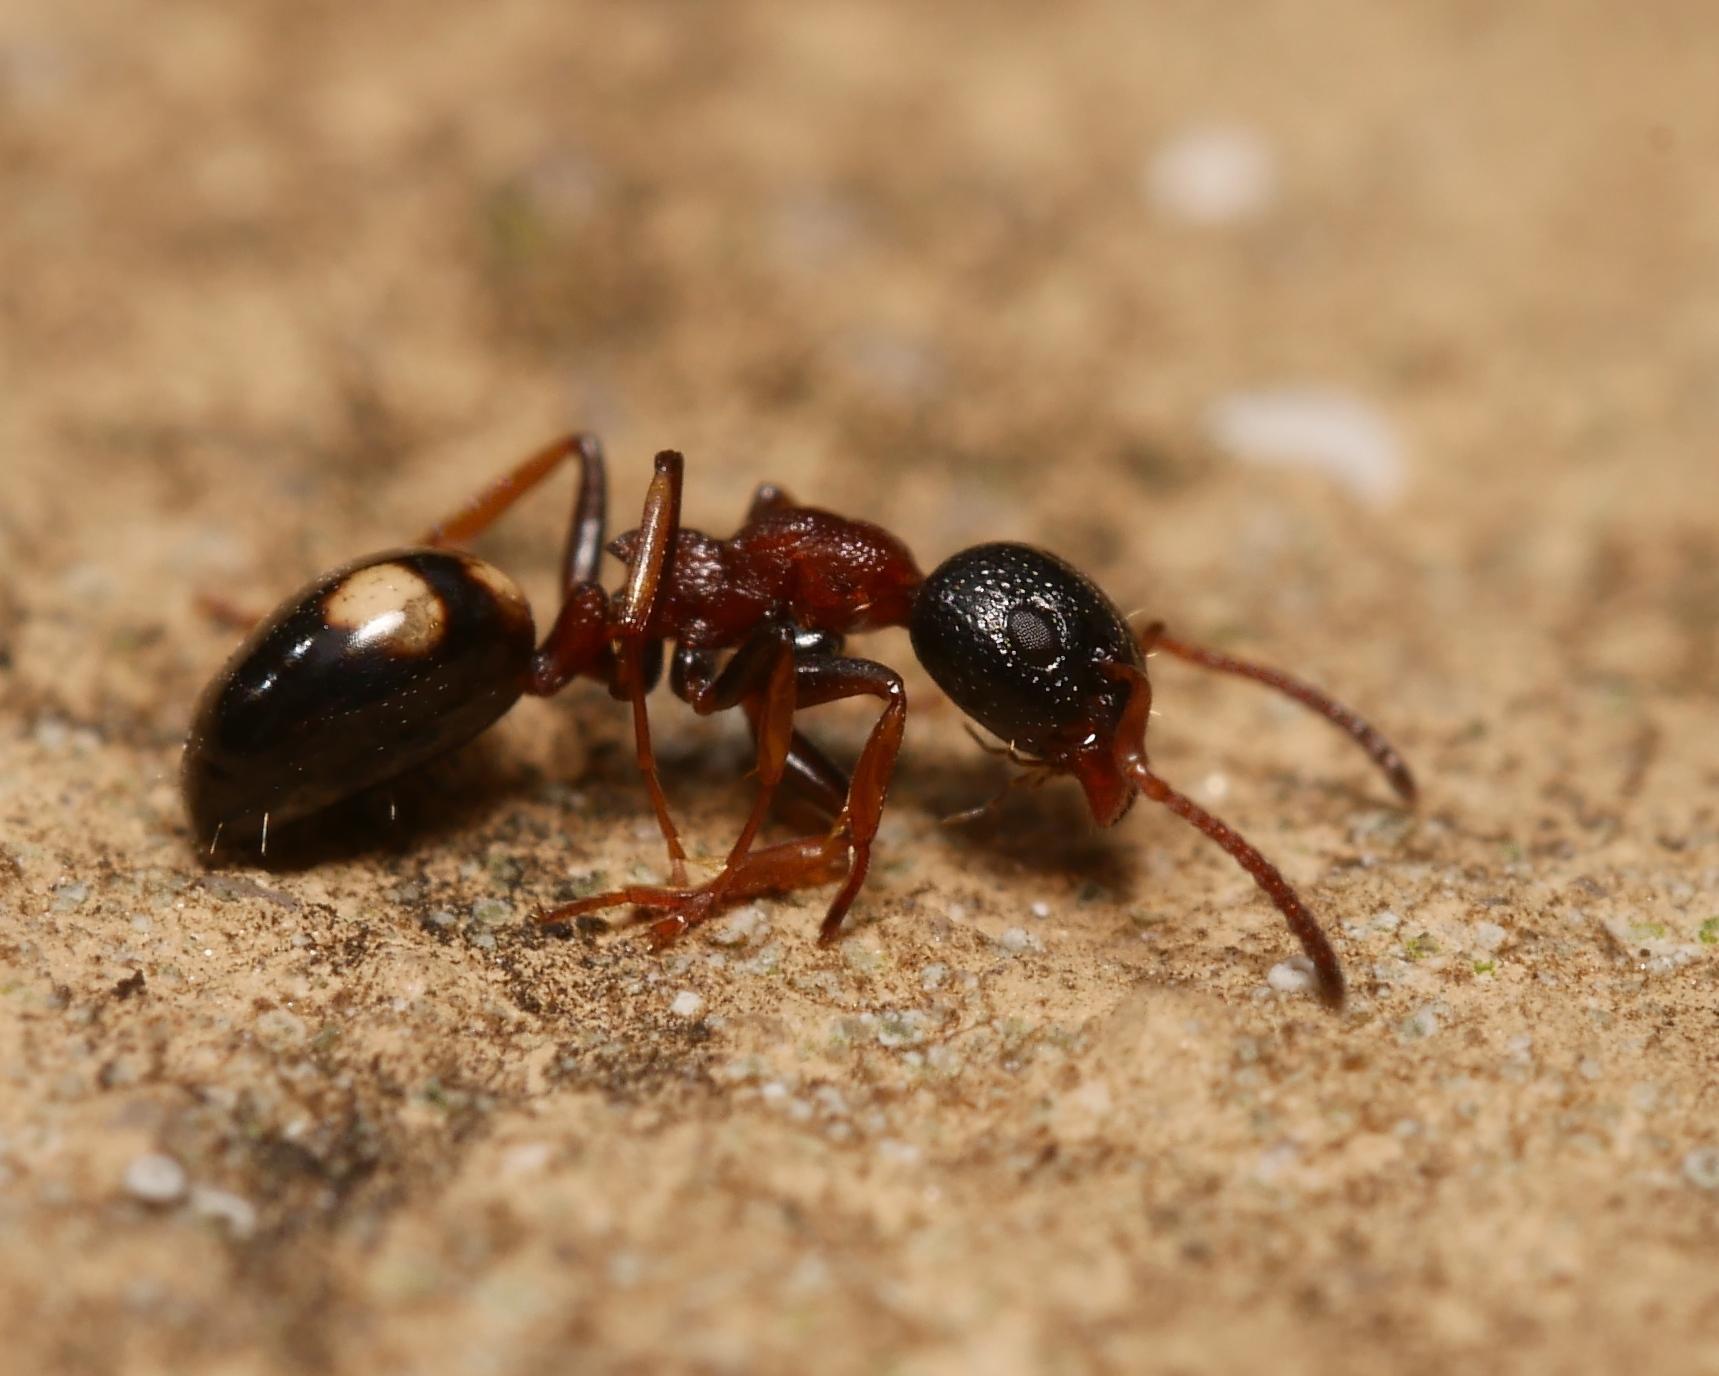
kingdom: Animalia
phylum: Arthropoda
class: Insecta
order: Hymenoptera
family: Formicidae
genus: Dolichoderus
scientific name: Dolichoderus quadripunctatus
